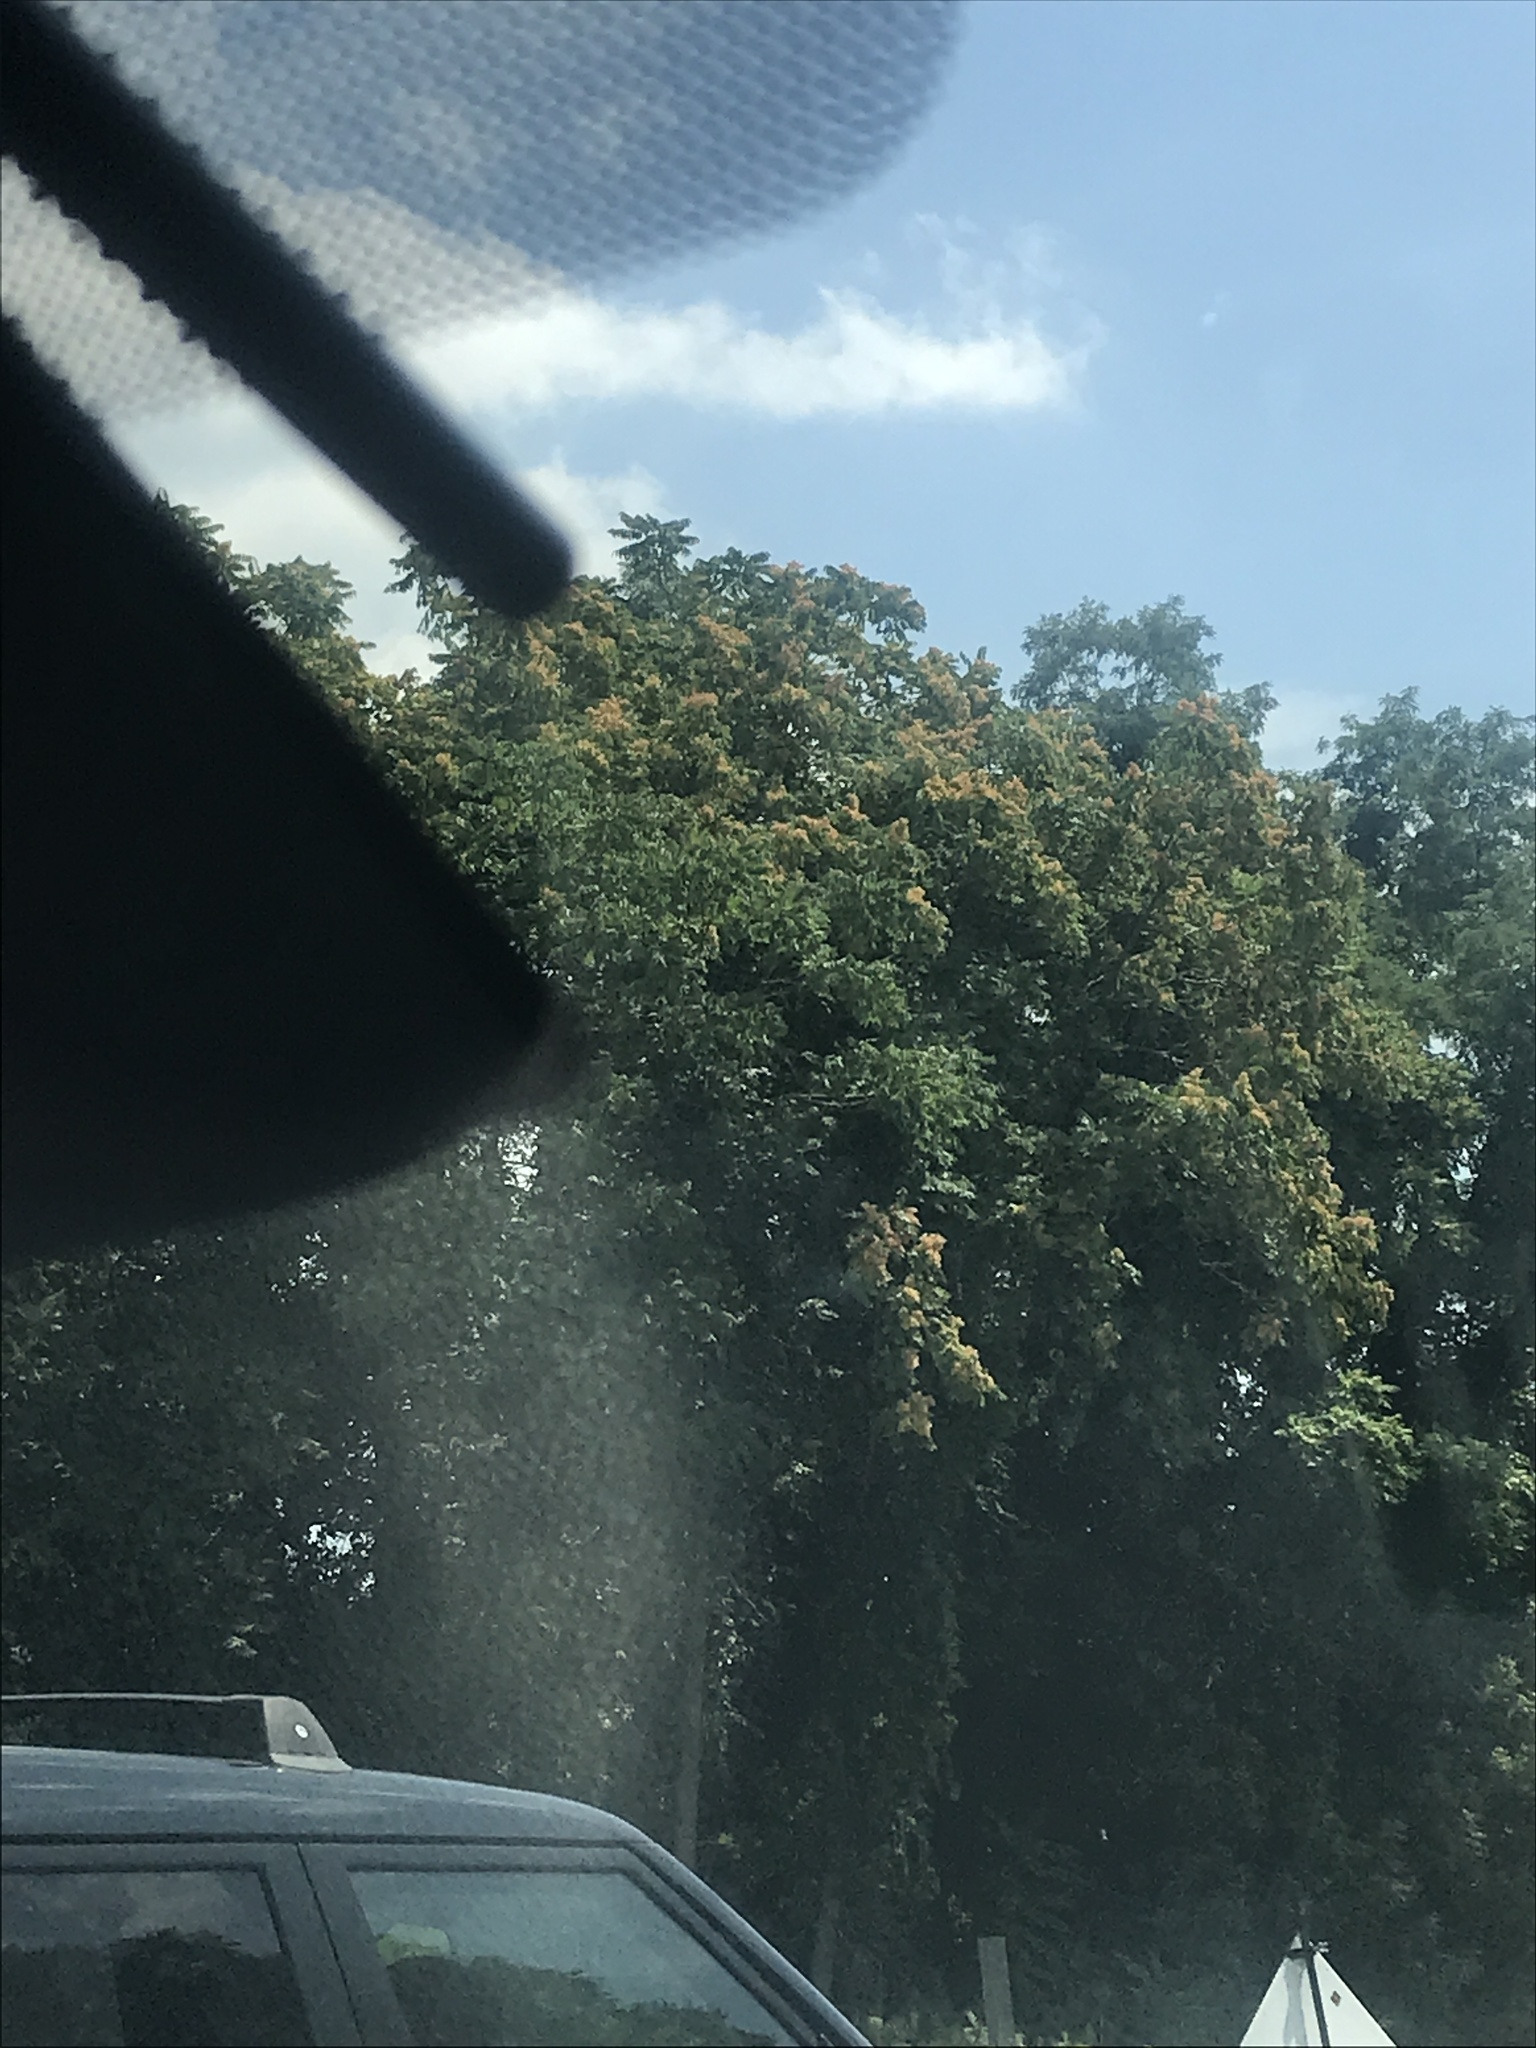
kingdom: Plantae
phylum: Tracheophyta
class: Magnoliopsida
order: Sapindales
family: Simaroubaceae
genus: Ailanthus
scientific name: Ailanthus altissima
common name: Tree-of-heaven
